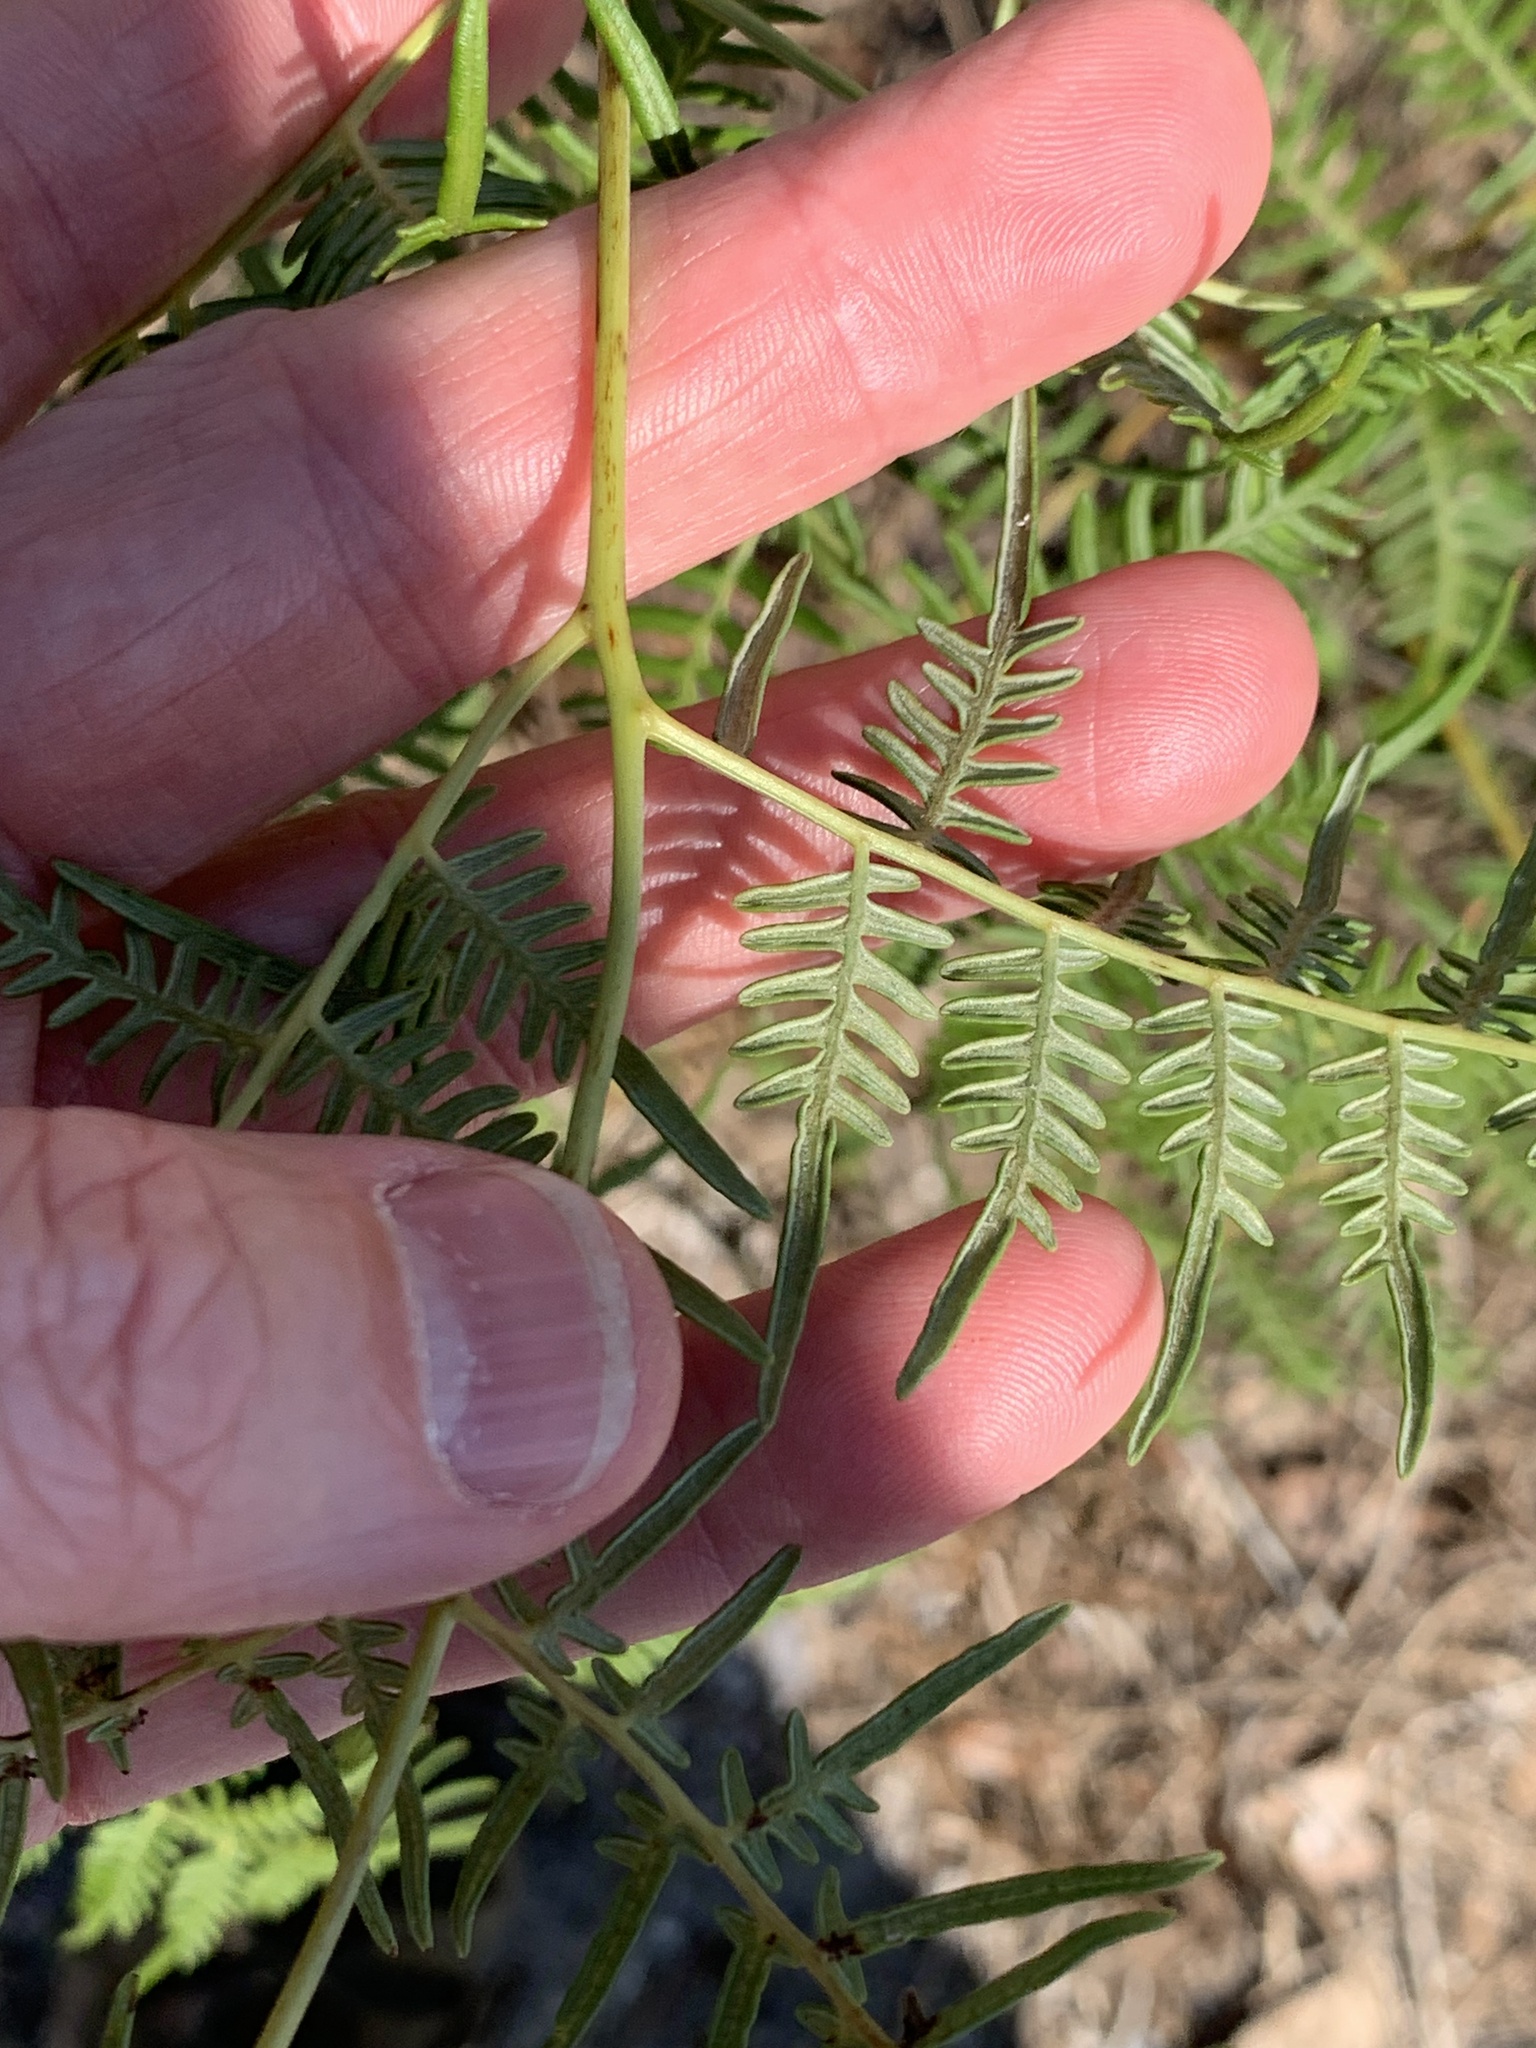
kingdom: Plantae
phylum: Tracheophyta
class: Polypodiopsida
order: Polypodiales
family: Dennstaedtiaceae
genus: Pteridium
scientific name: Pteridium caudatum
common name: Southern bracken fern
